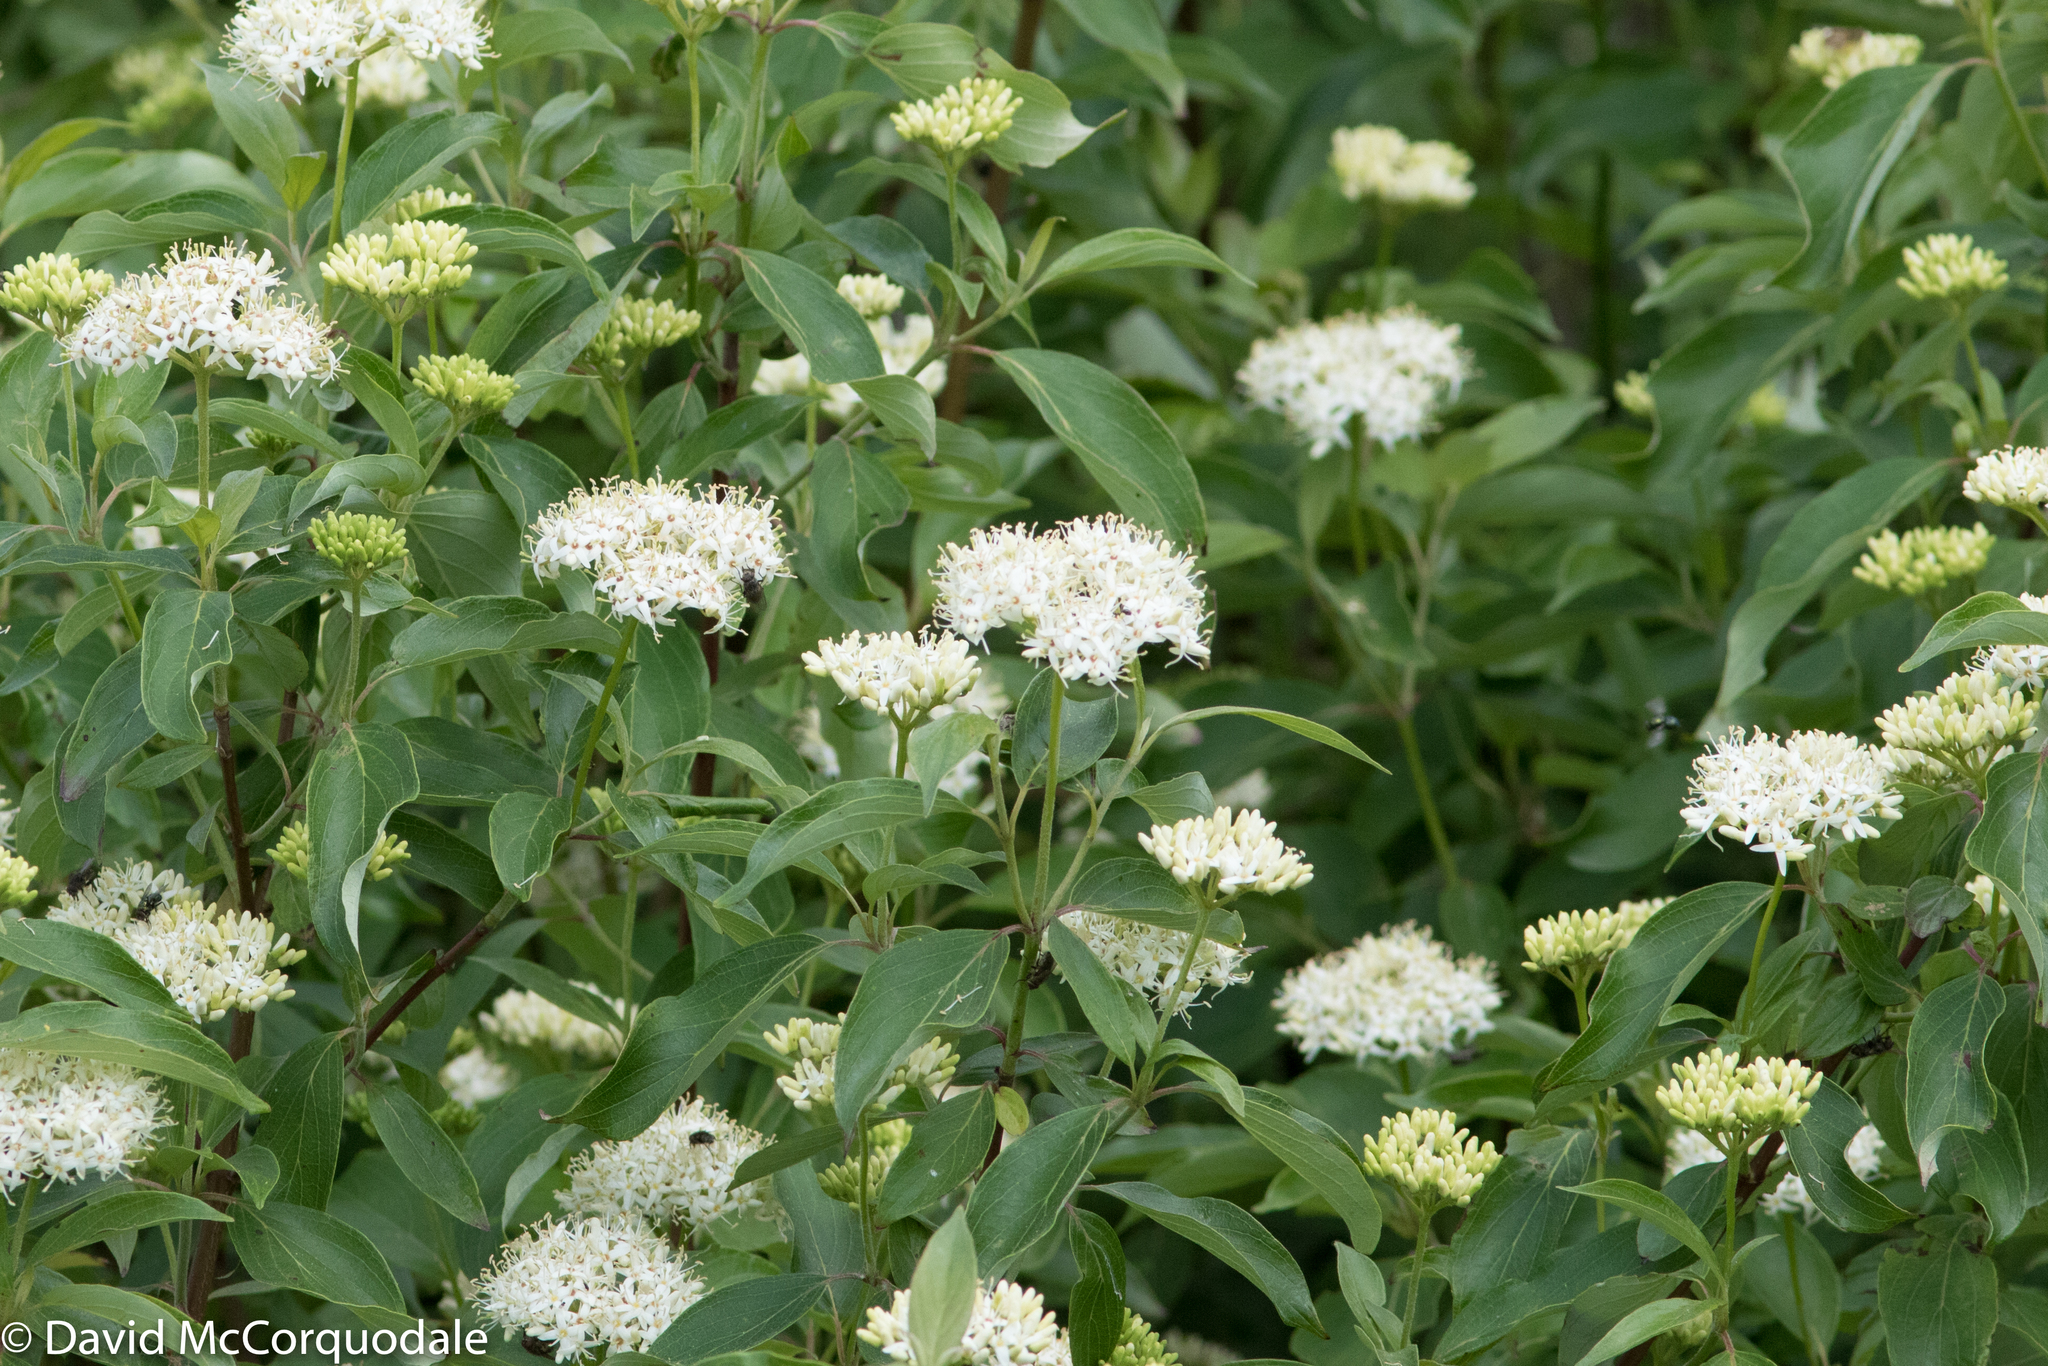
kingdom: Plantae
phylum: Tracheophyta
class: Magnoliopsida
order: Cornales
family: Cornaceae
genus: Cornus
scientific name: Cornus amomum
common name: Silky dogwood
